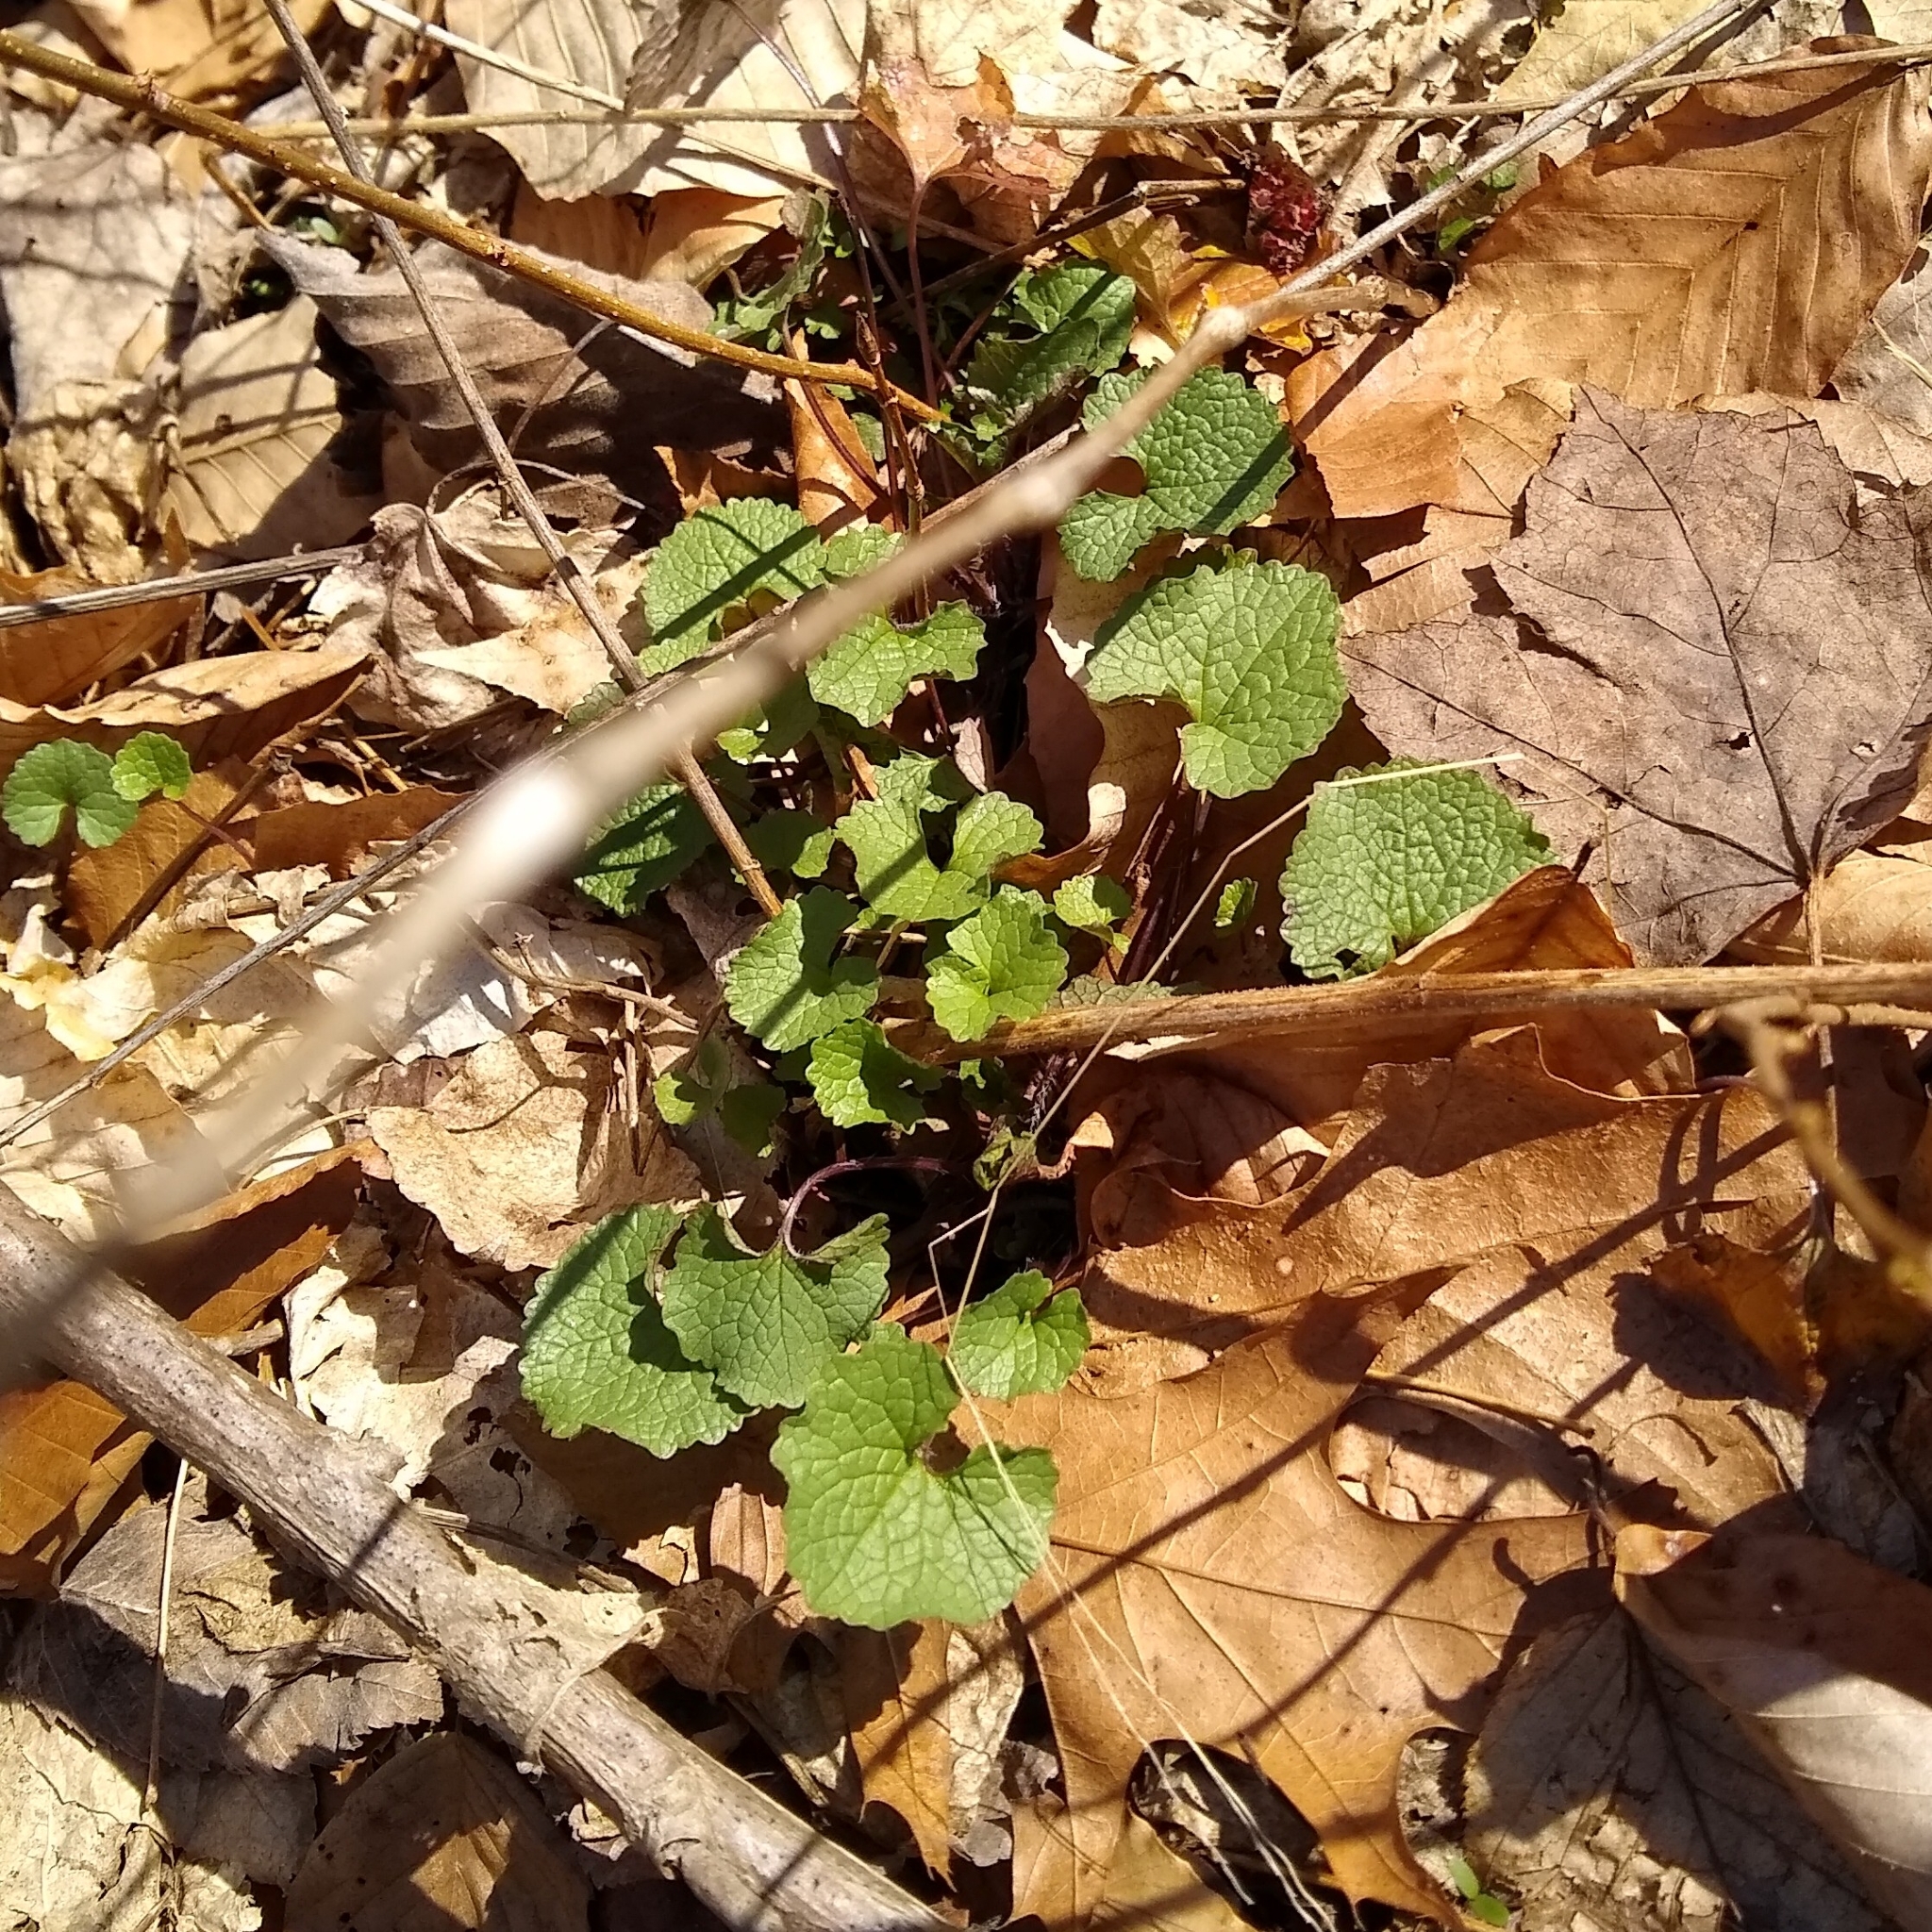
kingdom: Plantae
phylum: Tracheophyta
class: Magnoliopsida
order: Brassicales
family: Brassicaceae
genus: Alliaria
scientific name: Alliaria petiolata
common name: Garlic mustard
